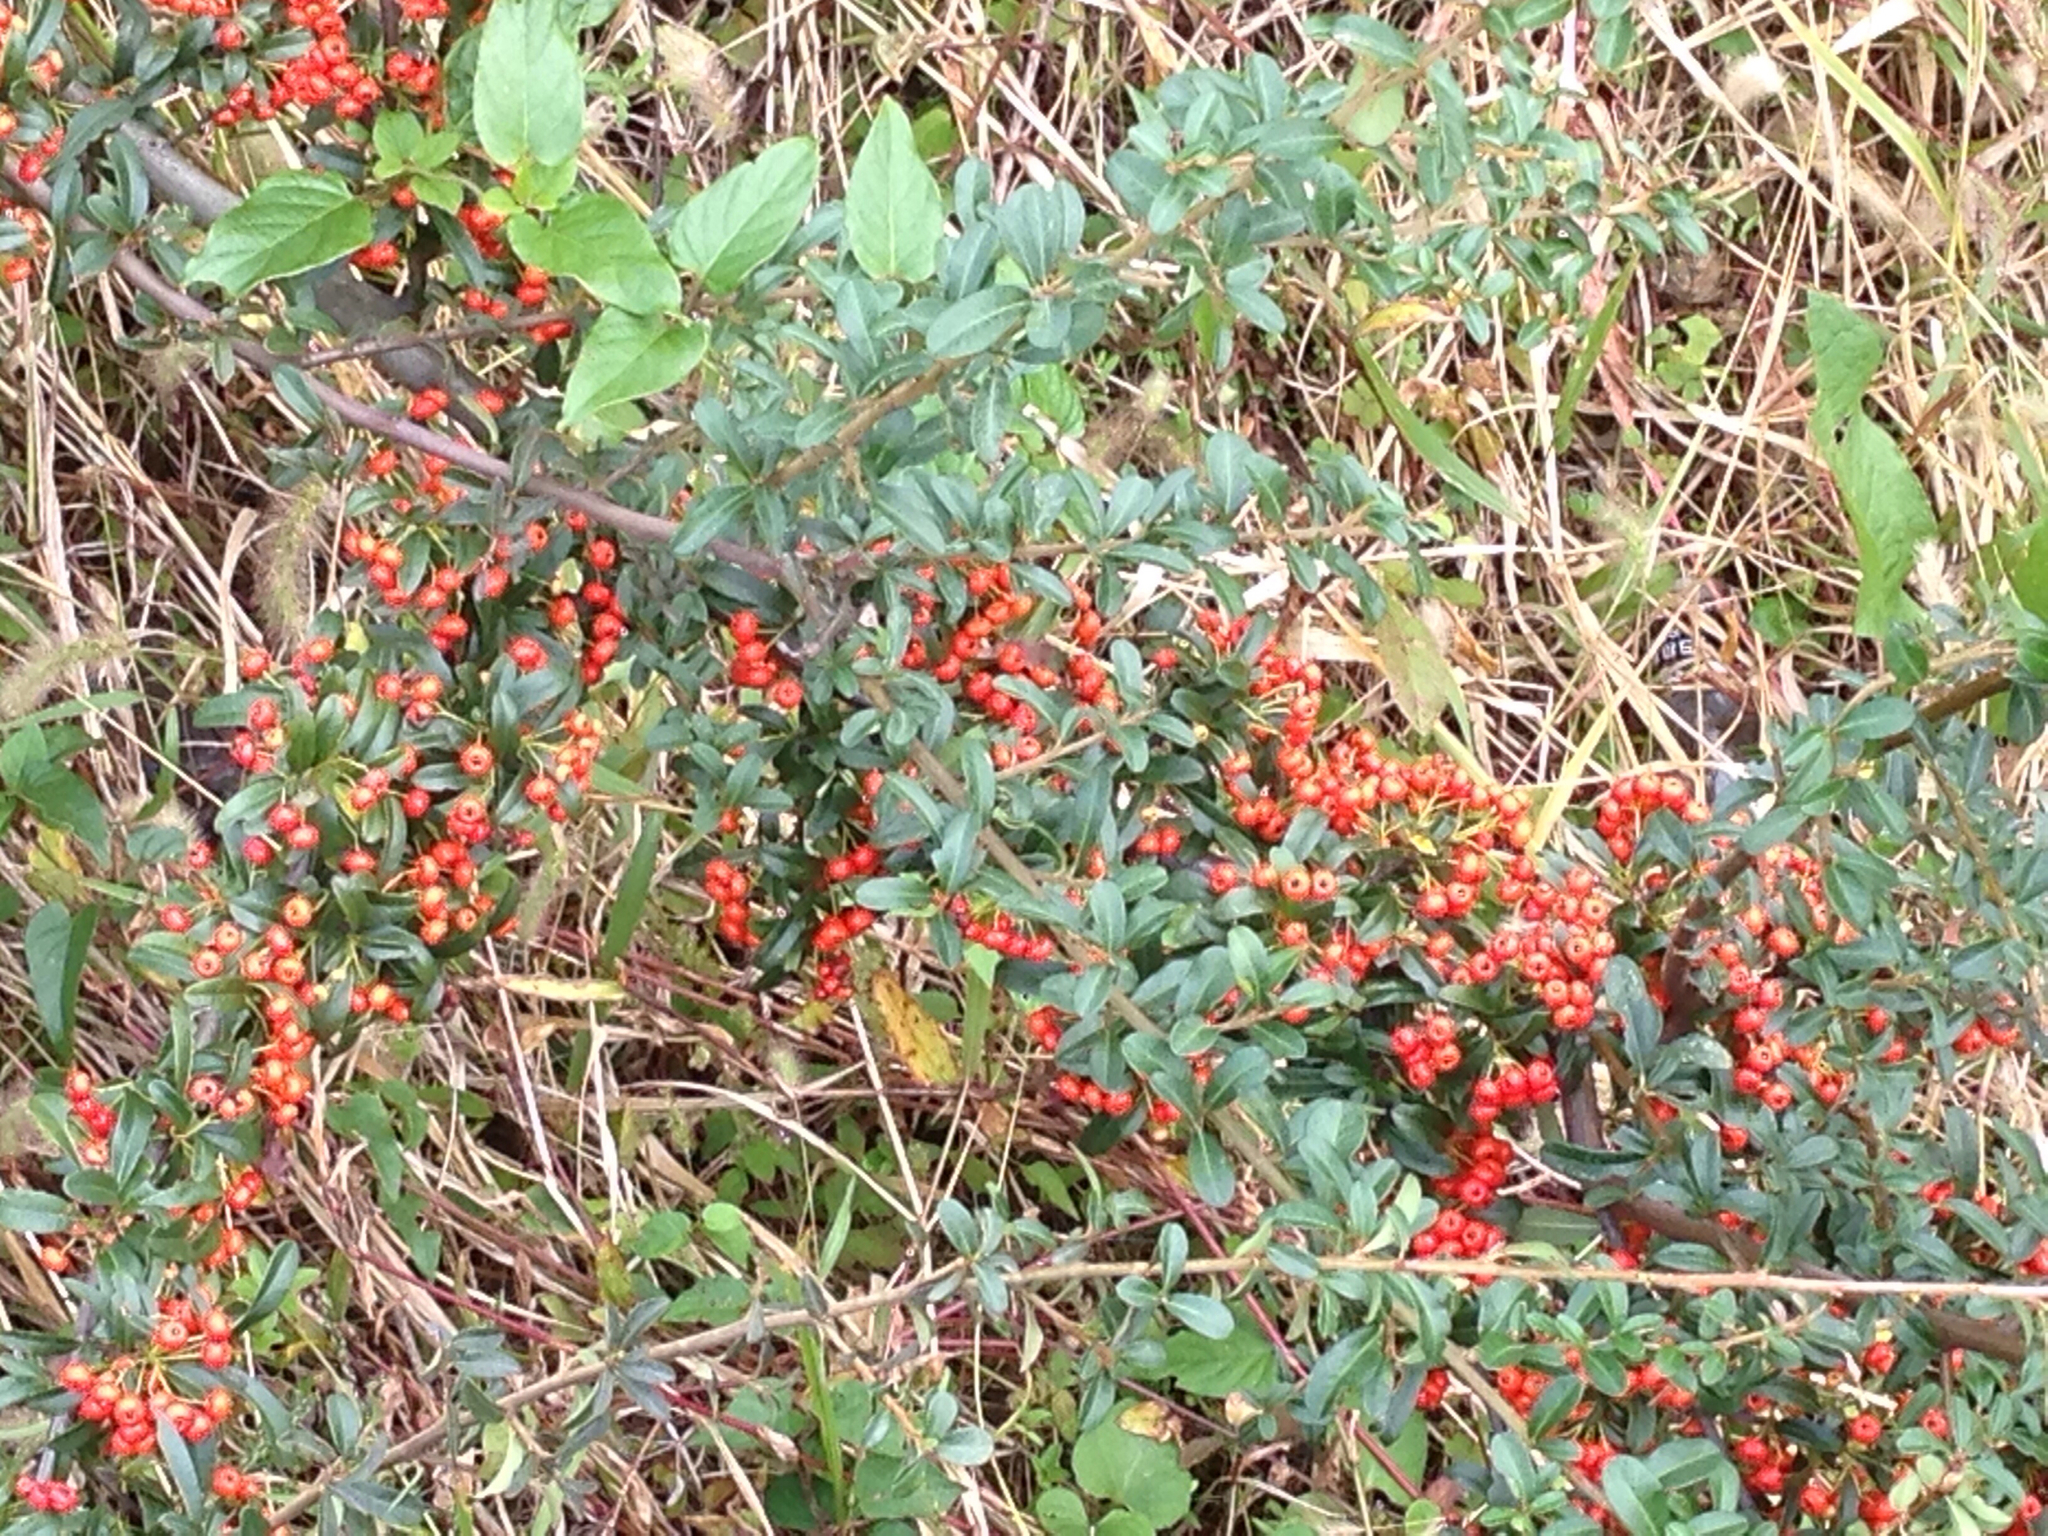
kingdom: Plantae
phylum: Tracheophyta
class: Magnoliopsida
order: Rosales
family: Rosaceae
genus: Pyracantha
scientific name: Pyracantha angustifolia
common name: Narrowleaf firethorn
